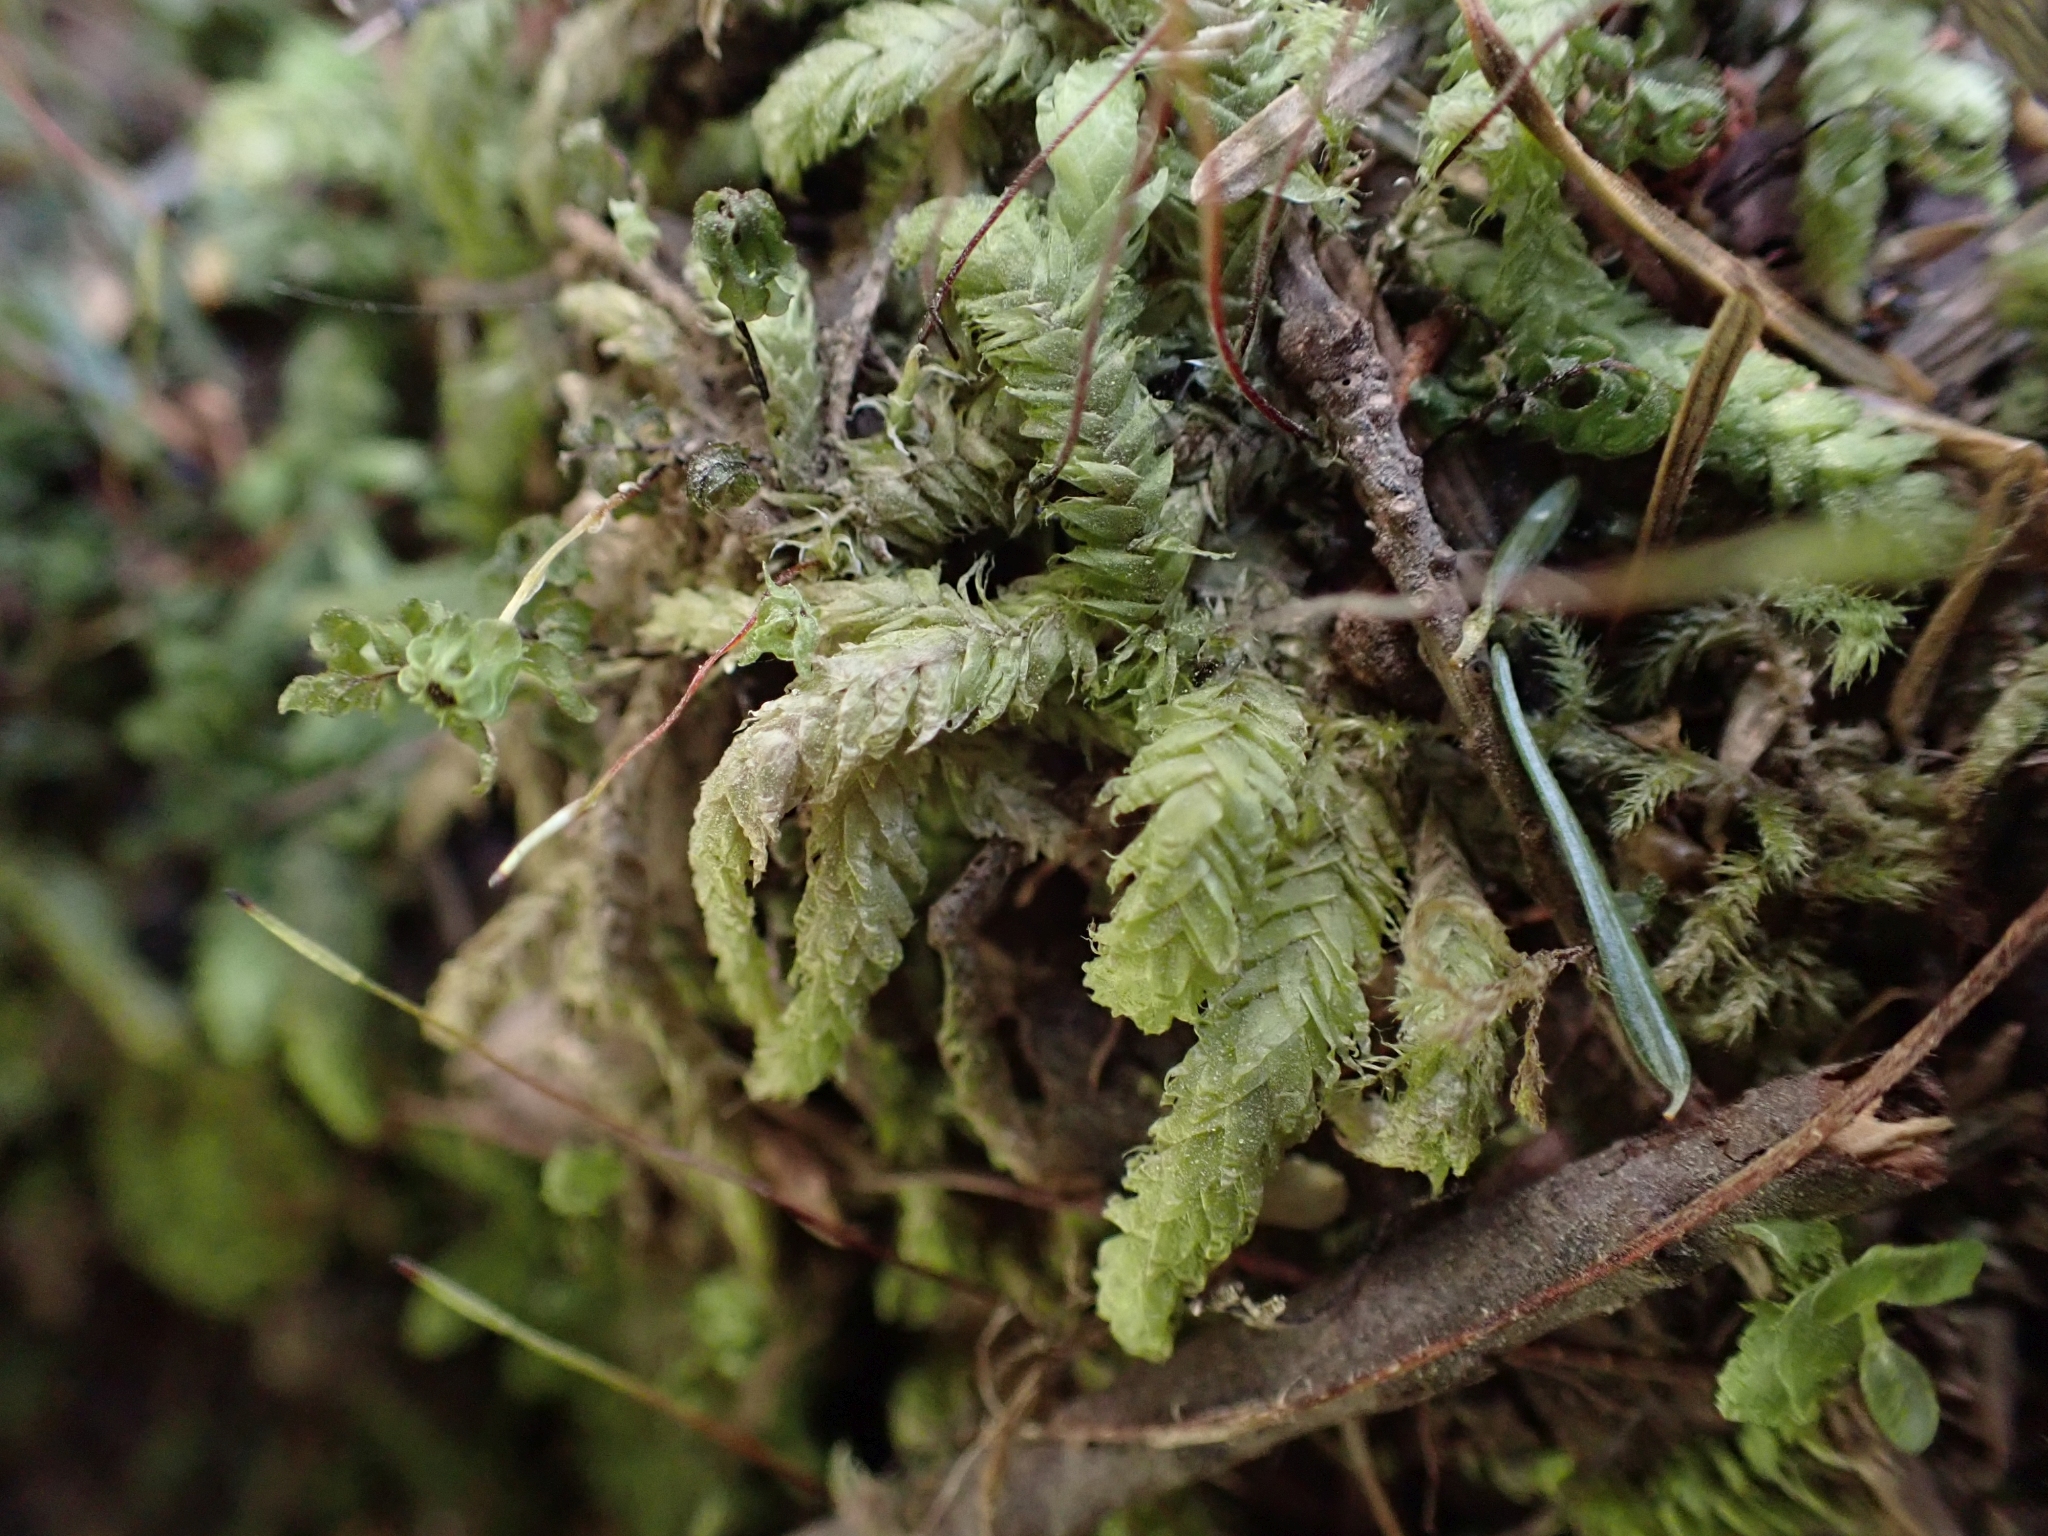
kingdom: Plantae
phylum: Bryophyta
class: Bryopsida
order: Hypnales
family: Plagiotheciaceae
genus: Plagiothecium
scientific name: Plagiothecium undulatum
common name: Waved silk-moss
